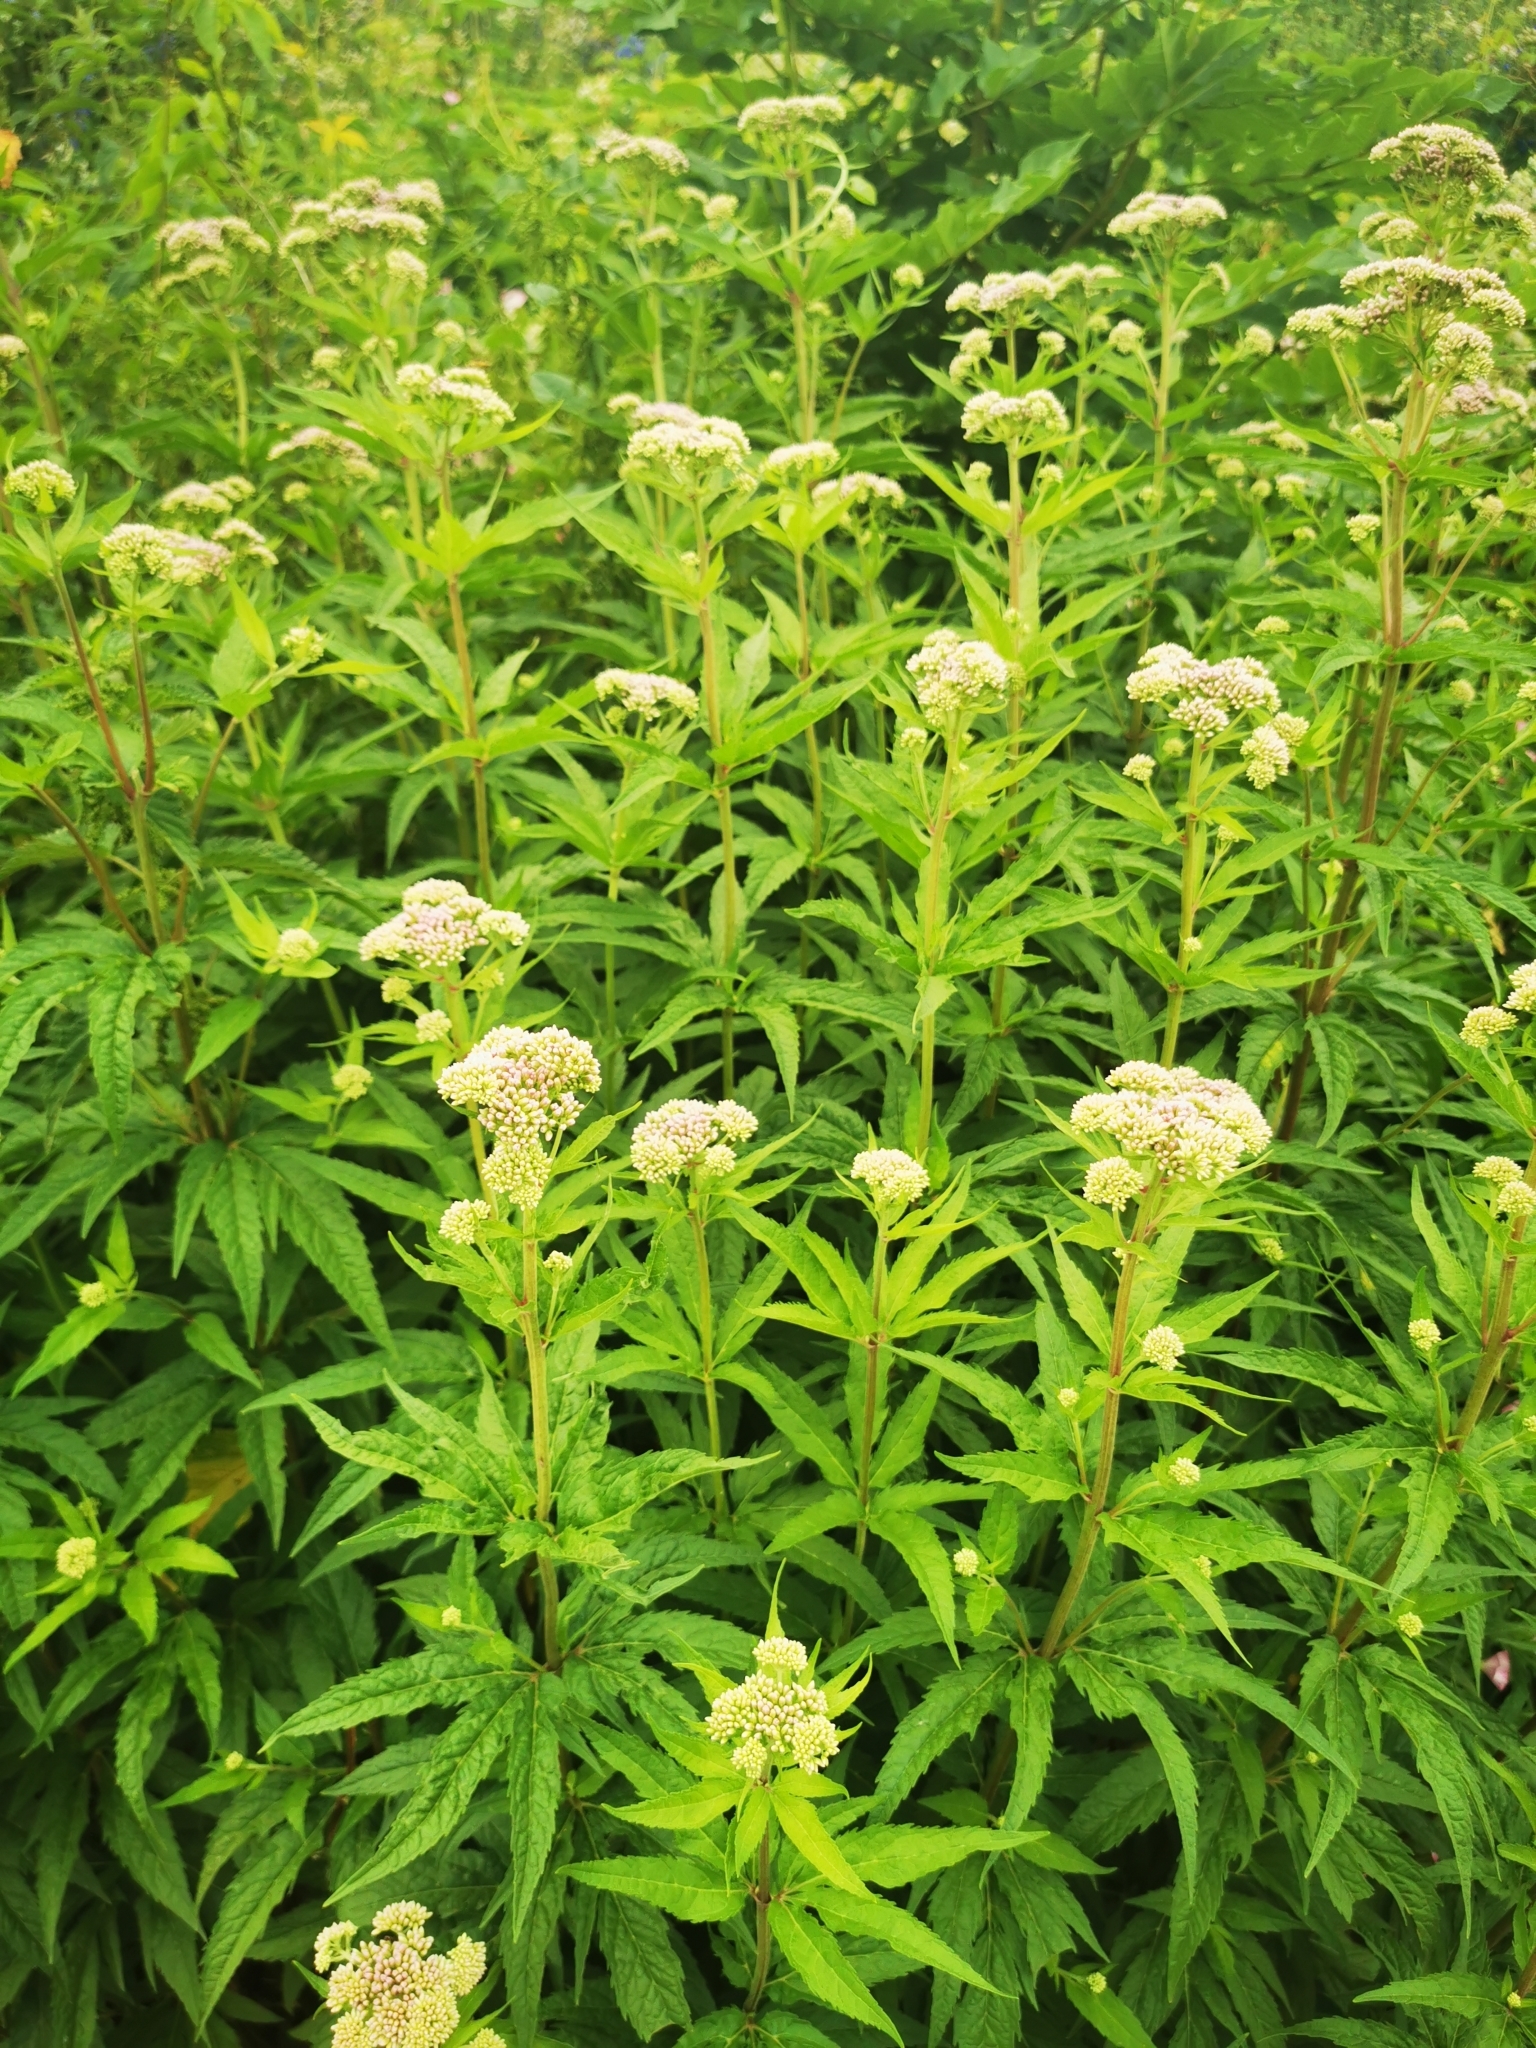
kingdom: Plantae
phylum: Tracheophyta
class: Magnoliopsida
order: Asterales
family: Asteraceae
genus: Eupatorium
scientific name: Eupatorium cannabinum
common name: Hemp-agrimony
